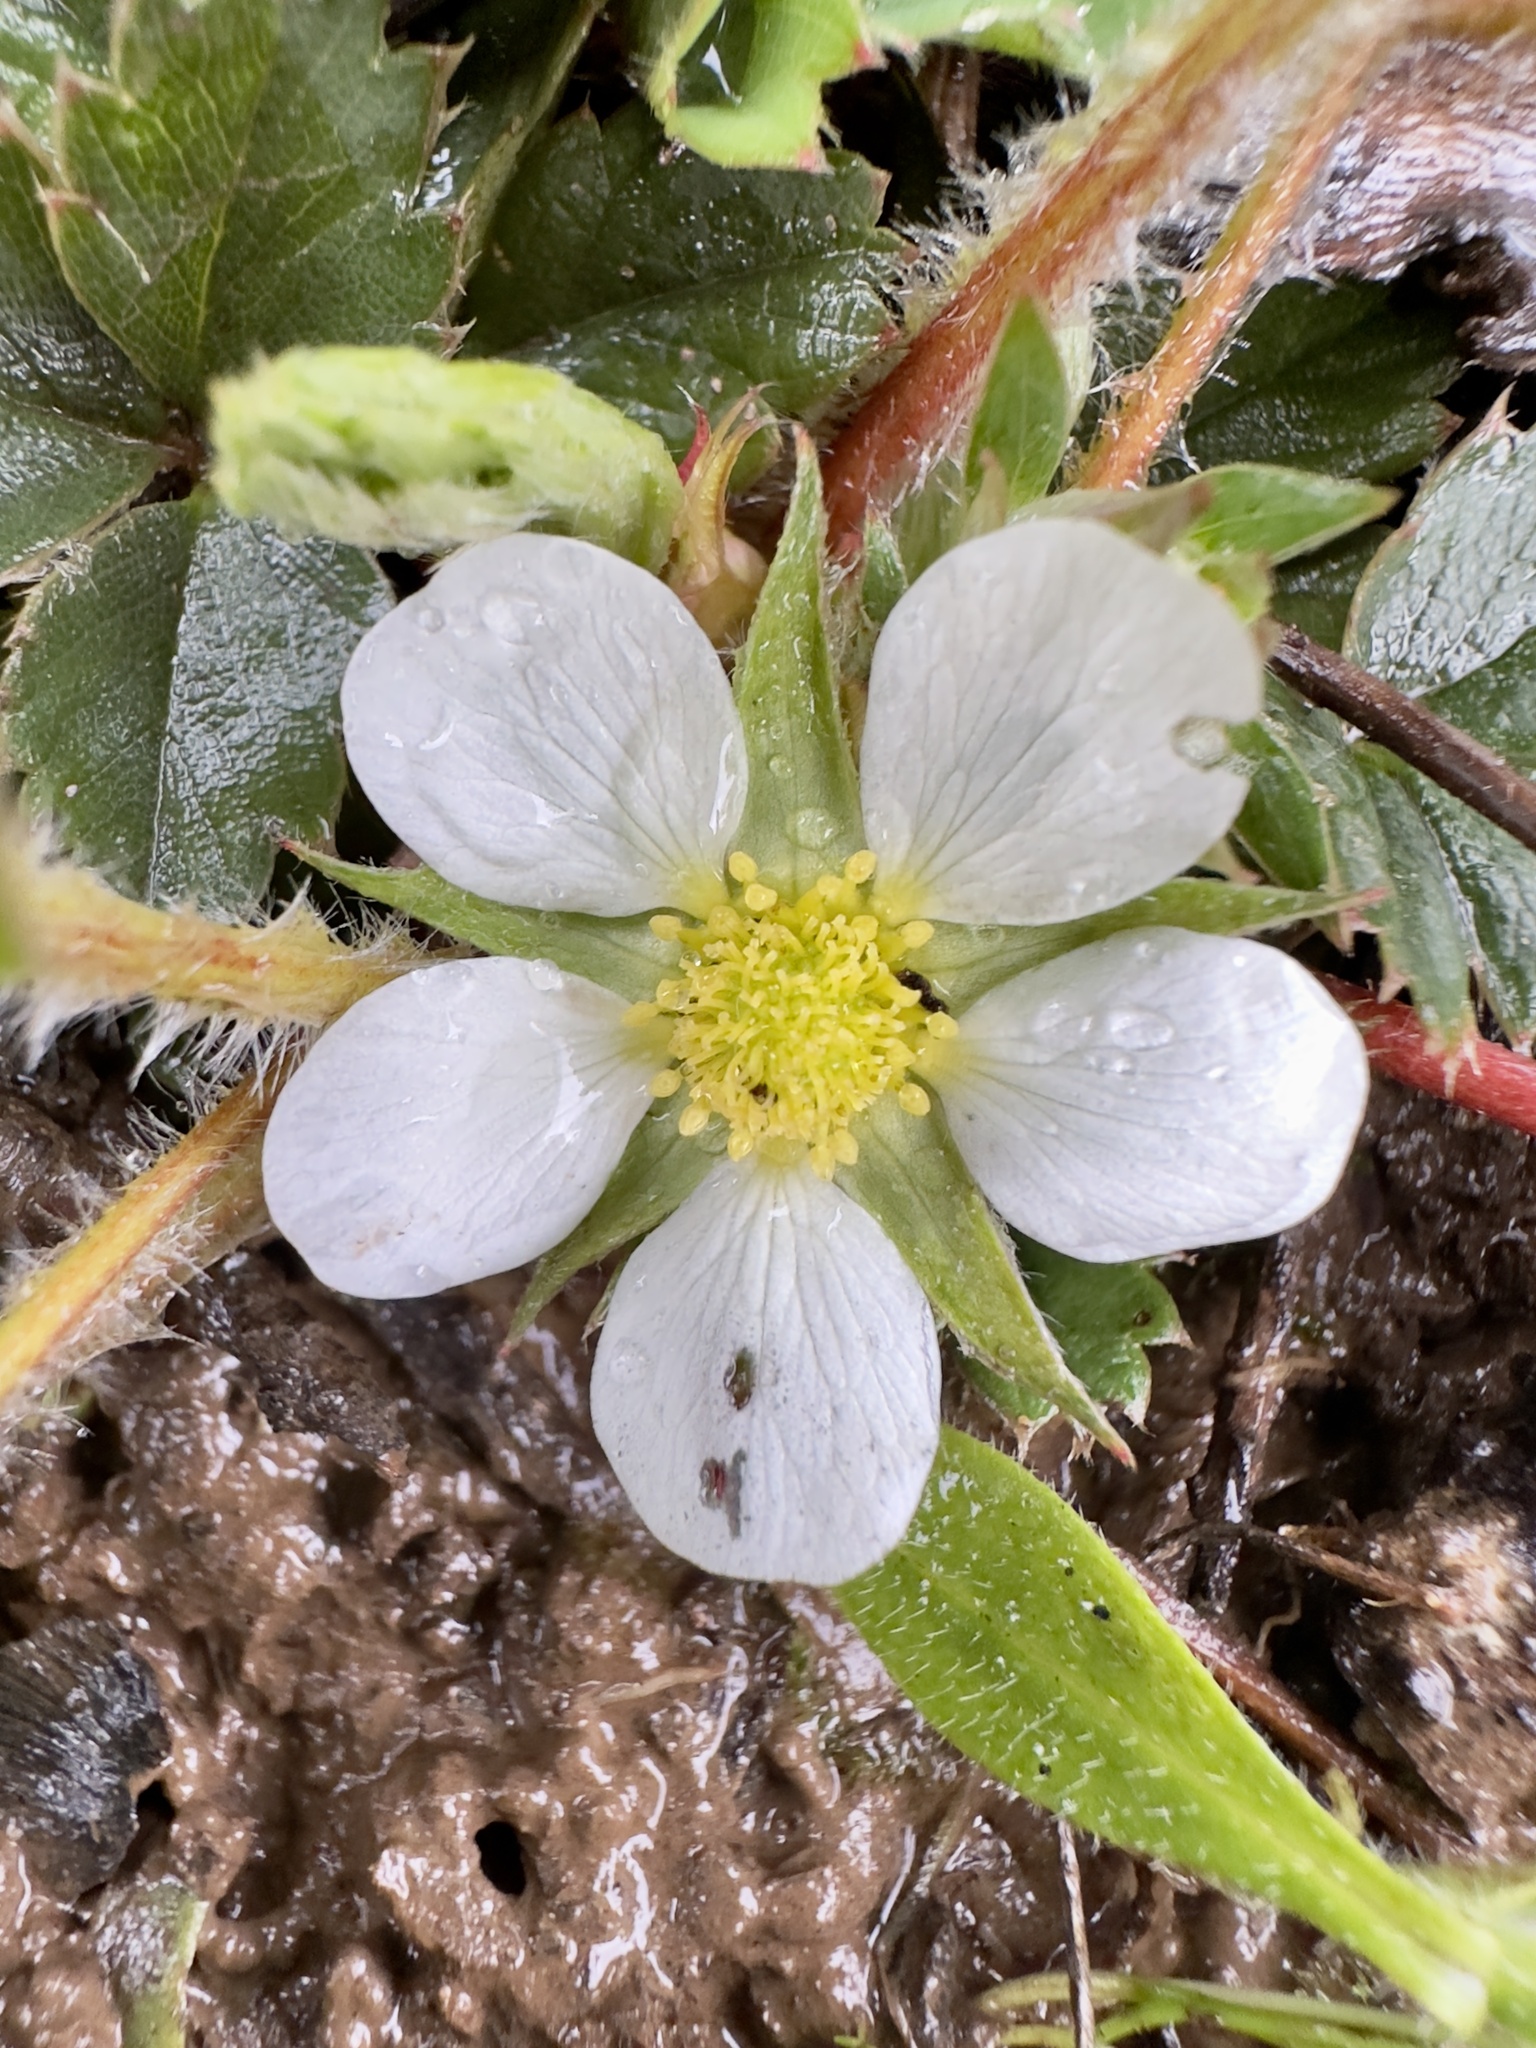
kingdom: Plantae
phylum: Tracheophyta
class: Magnoliopsida
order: Rosales
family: Rosaceae
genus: Fragaria
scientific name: Fragaria virginiana
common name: Thickleaved wild strawberry
